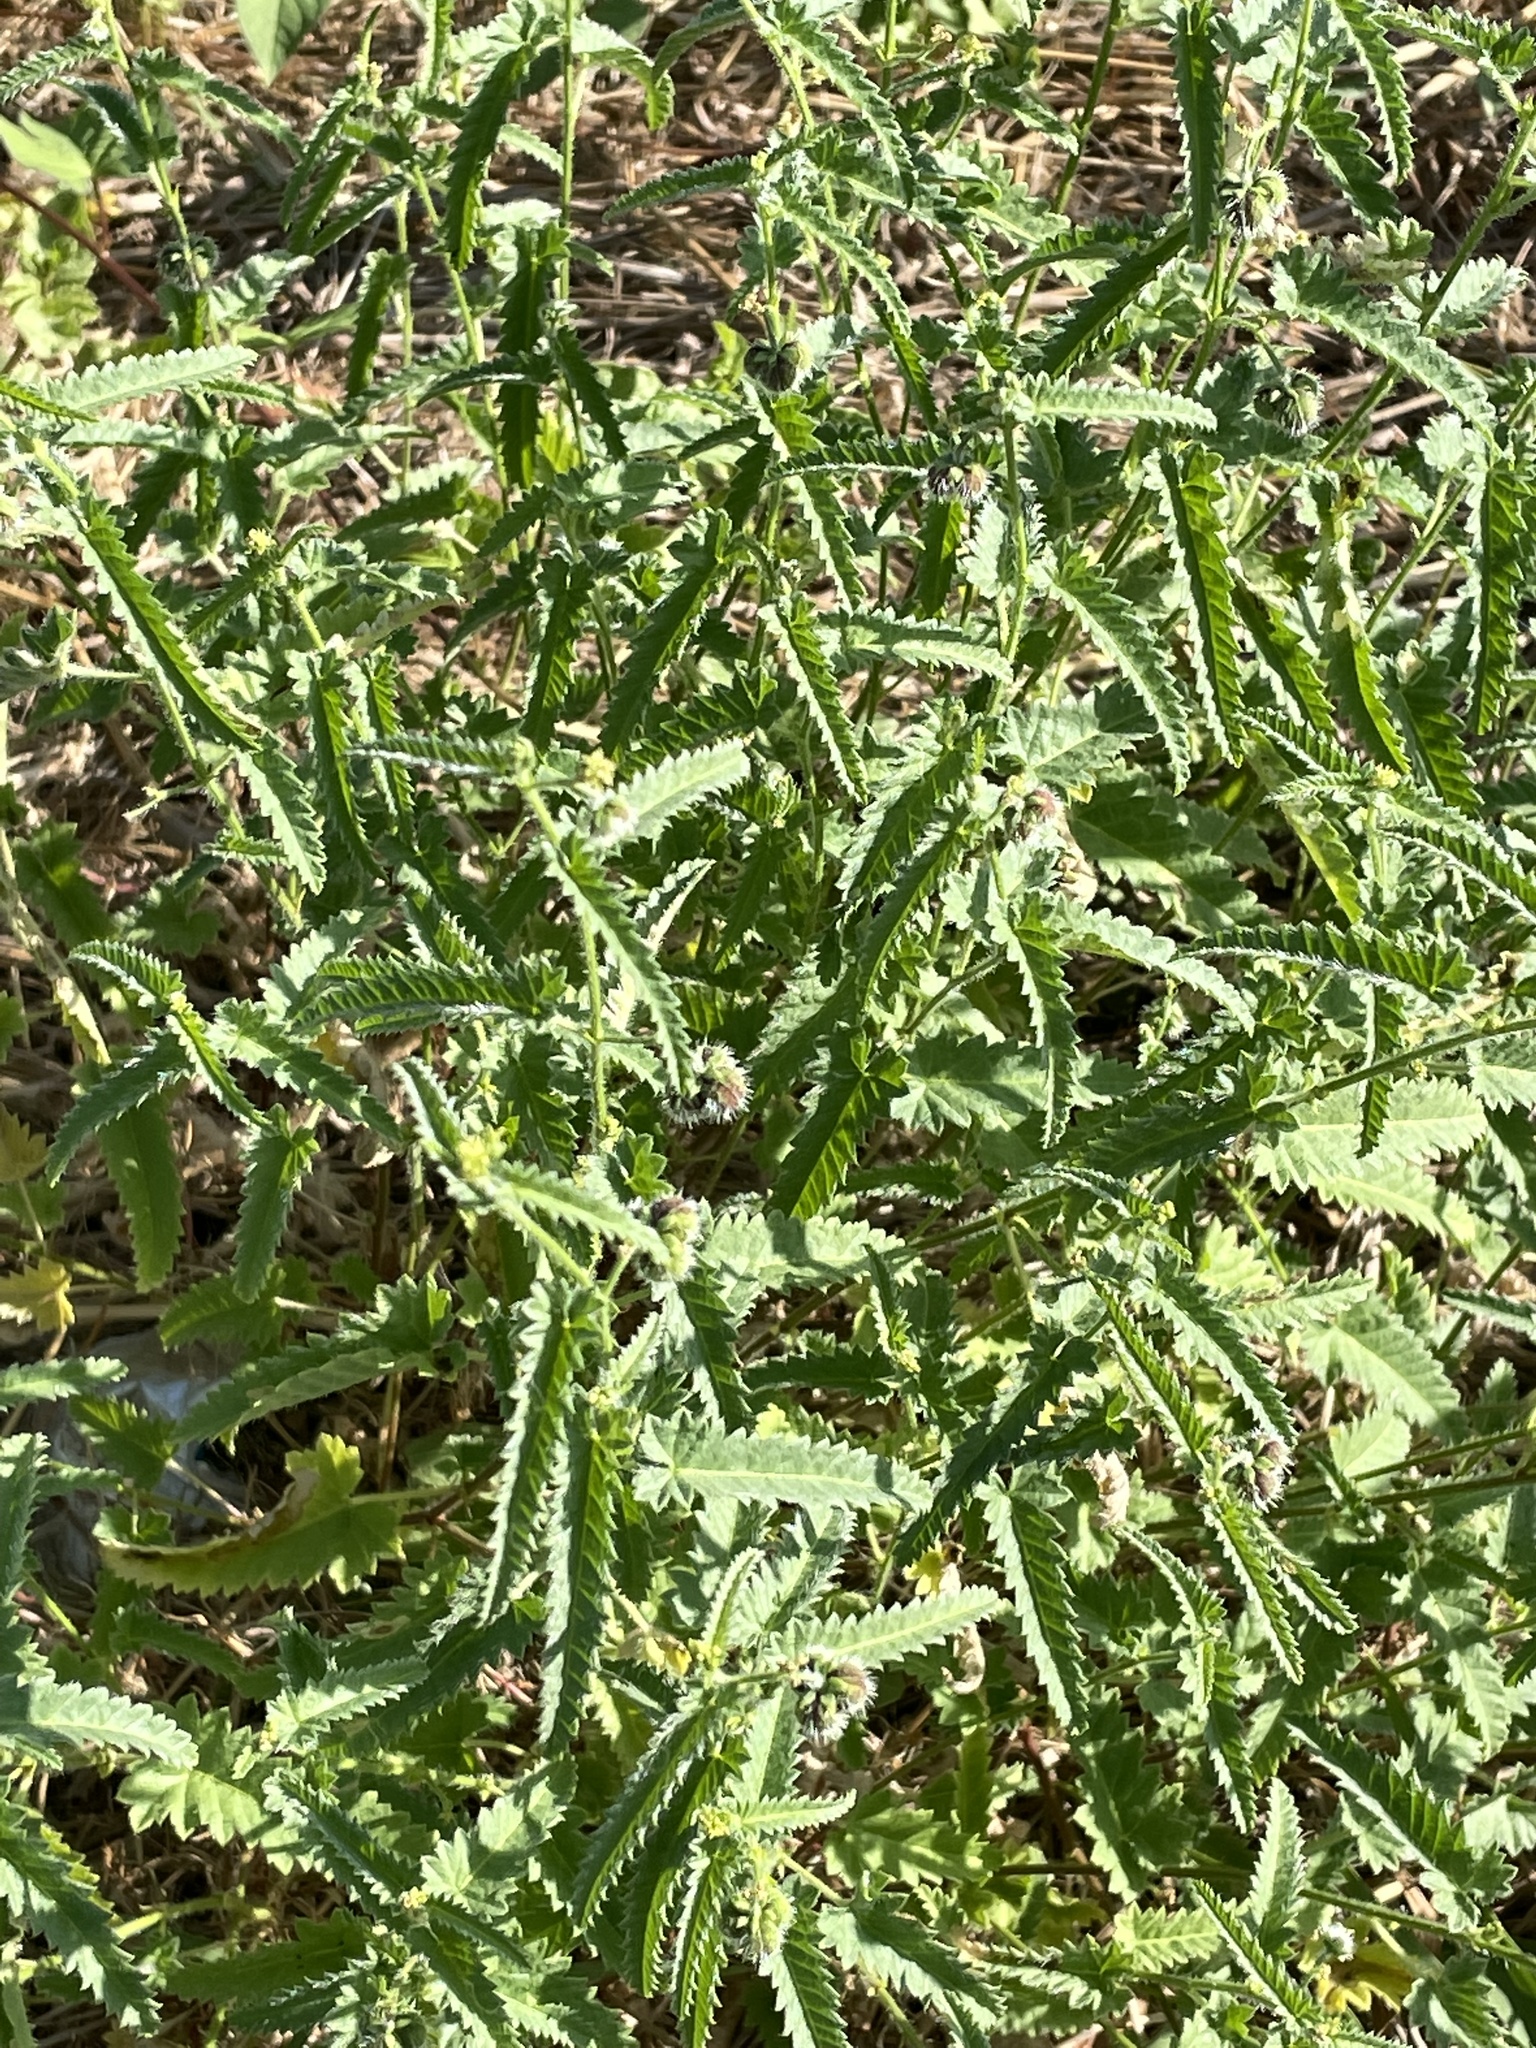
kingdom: Plantae
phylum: Tracheophyta
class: Magnoliopsida
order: Malpighiales
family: Euphorbiaceae
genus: Tragia
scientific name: Tragia ramosa
